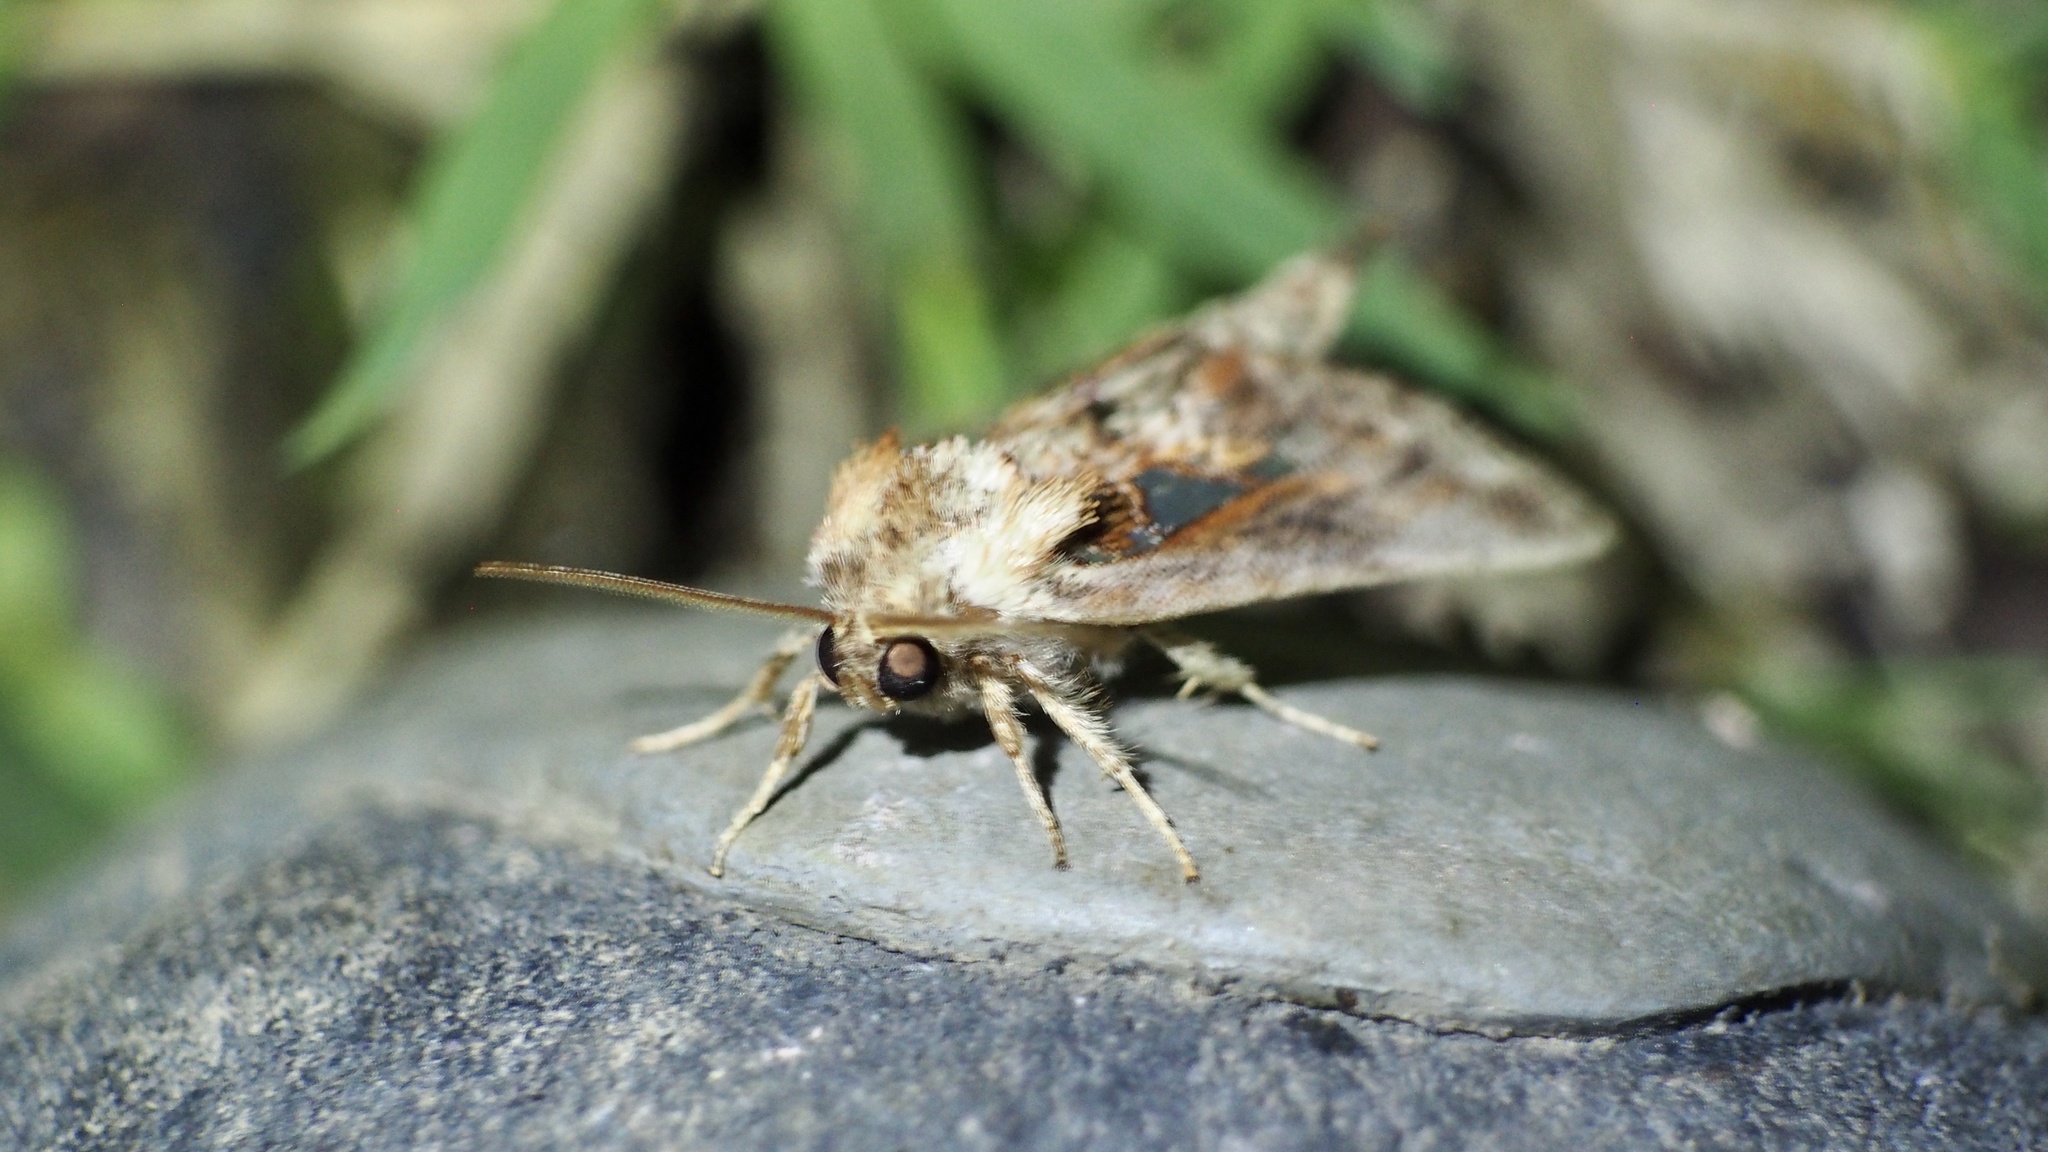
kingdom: Animalia
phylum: Arthropoda
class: Insecta
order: Lepidoptera
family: Notodontidae
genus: Spatalia
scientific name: Spatalia doerriesi
